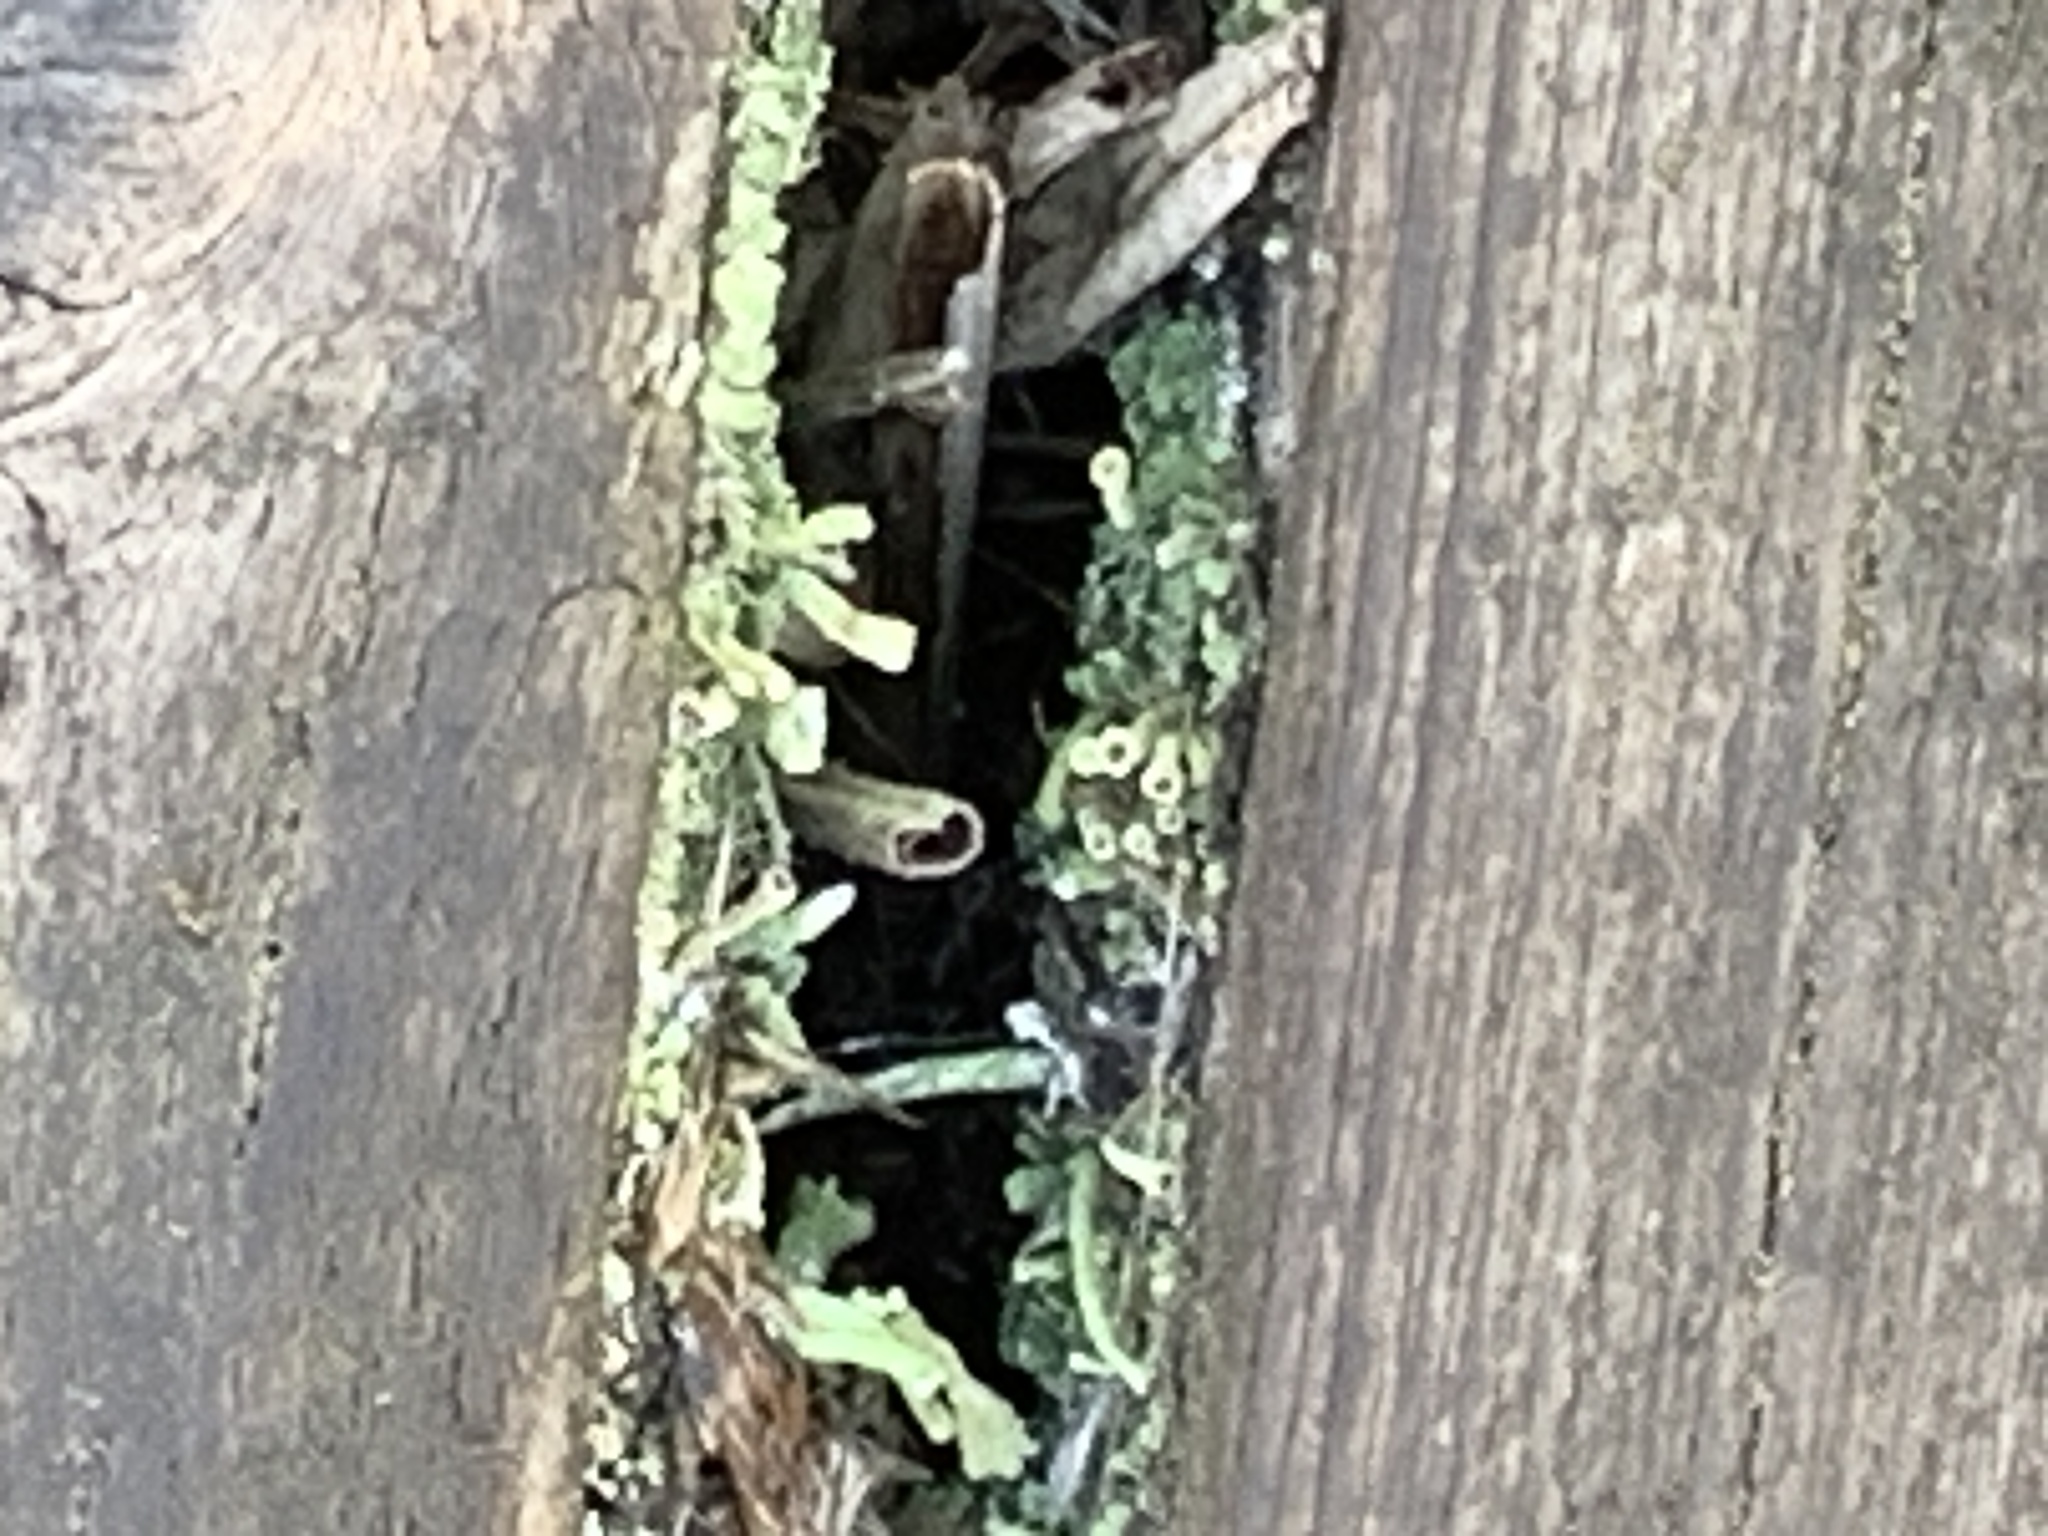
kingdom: Fungi
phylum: Ascomycota
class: Lecanoromycetes
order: Lecanorales
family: Cladoniaceae
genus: Cladonia
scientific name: Cladonia
